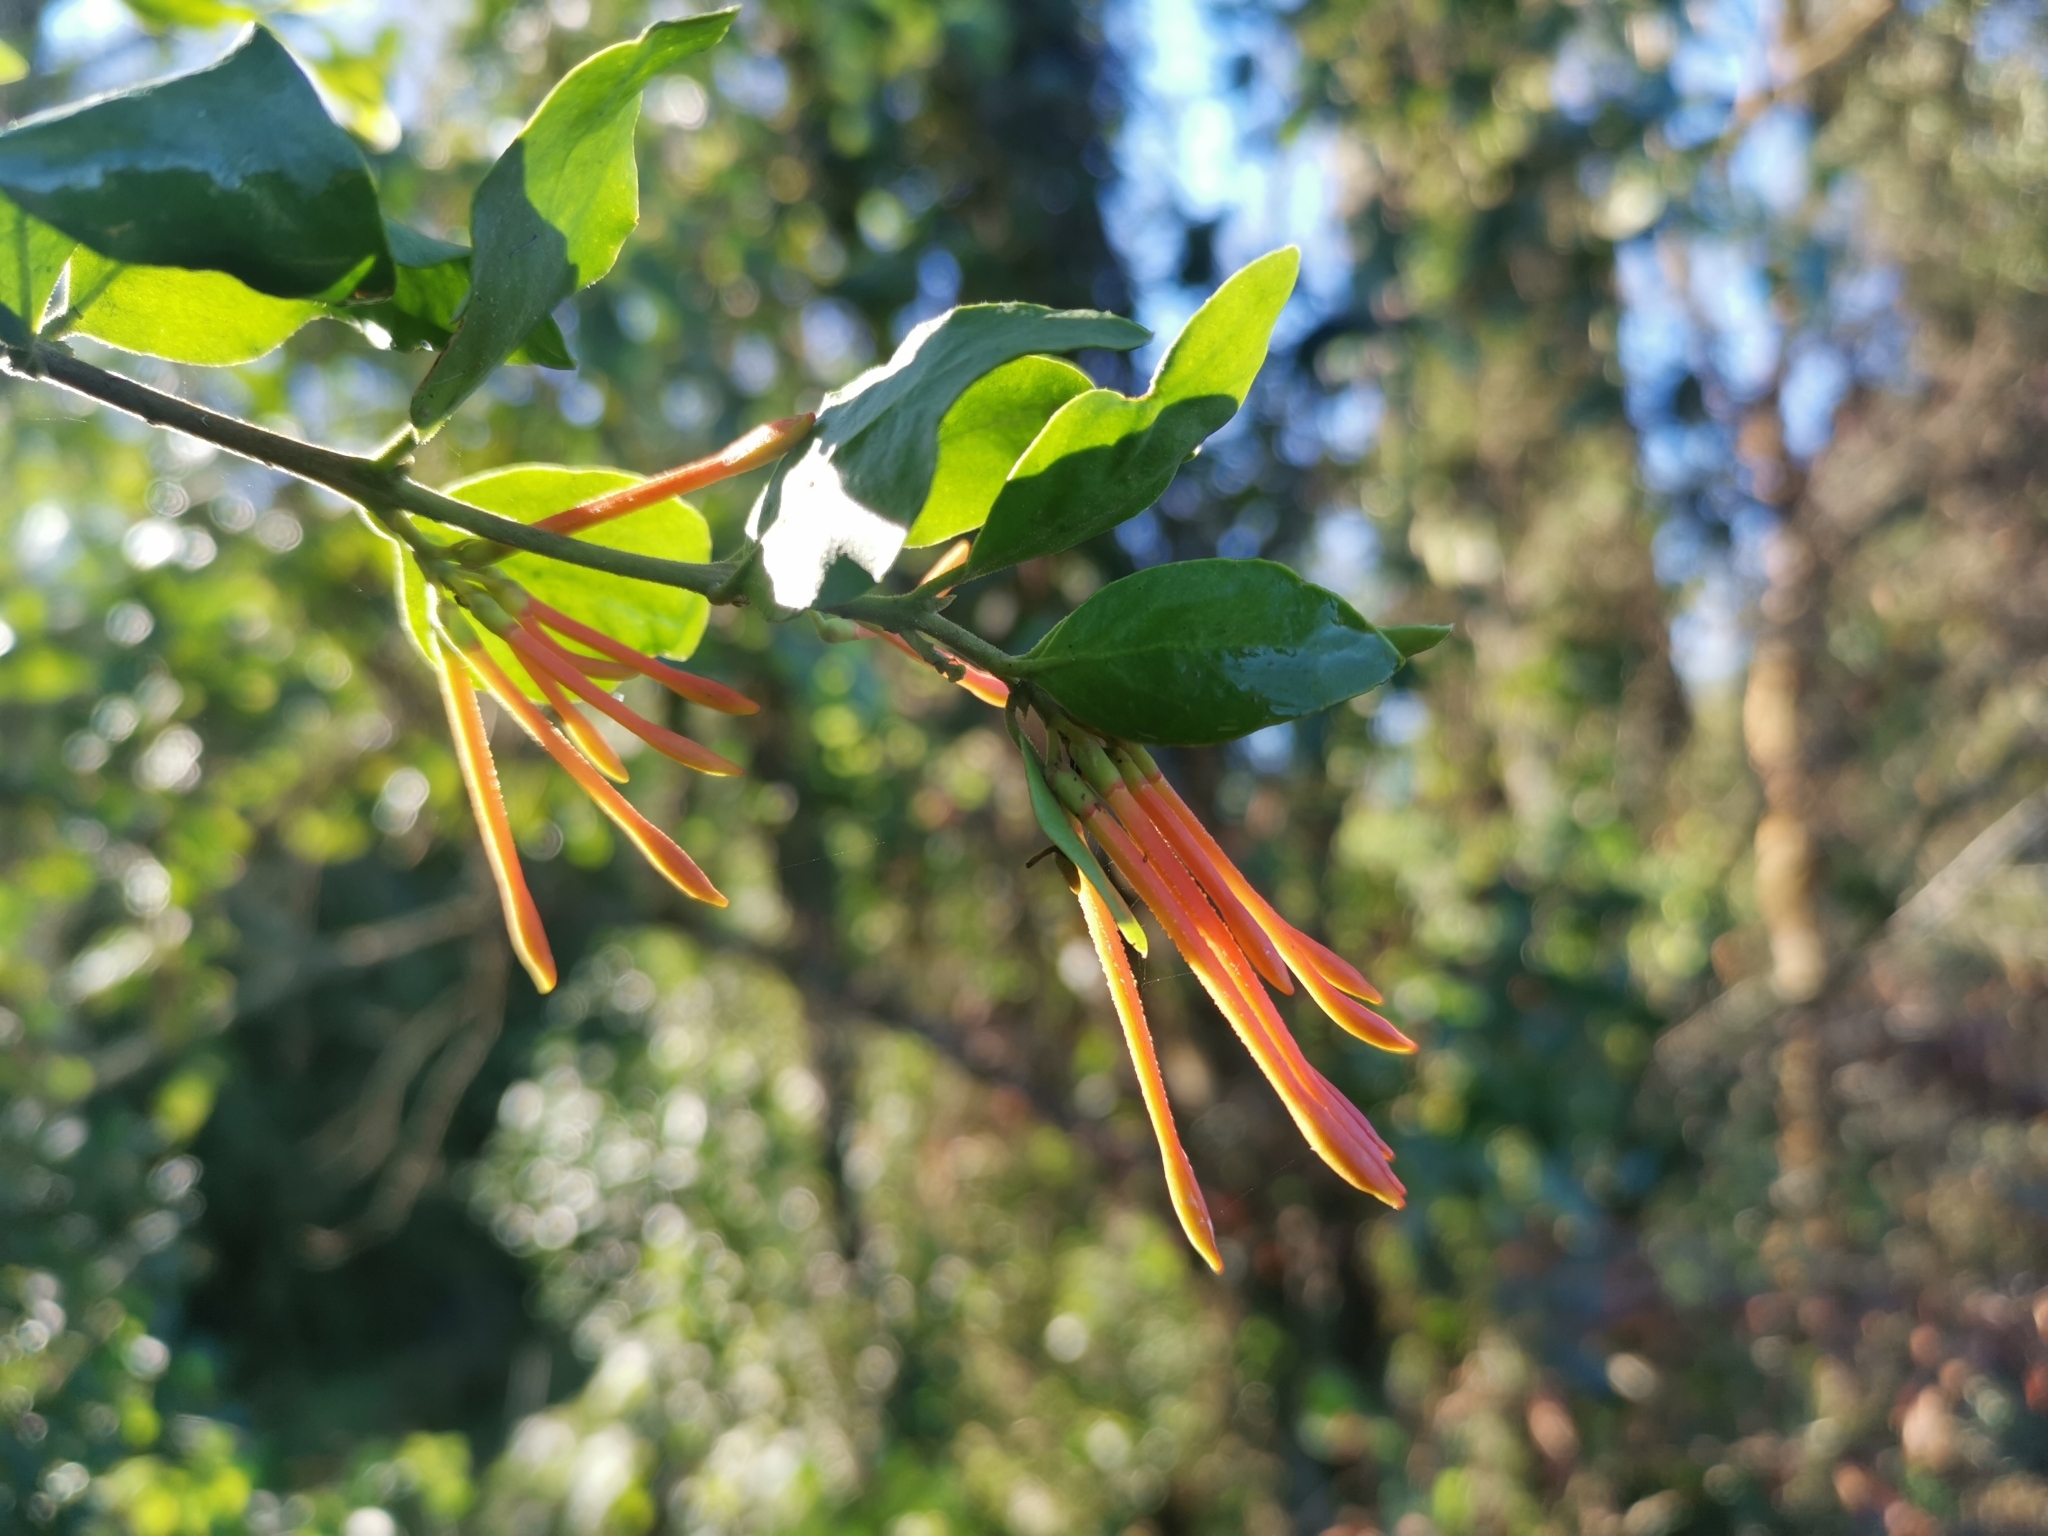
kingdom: Plantae
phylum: Tracheophyta
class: Magnoliopsida
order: Santalales
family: Loranthaceae
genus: Tristerix
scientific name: Tristerix corymbosus
